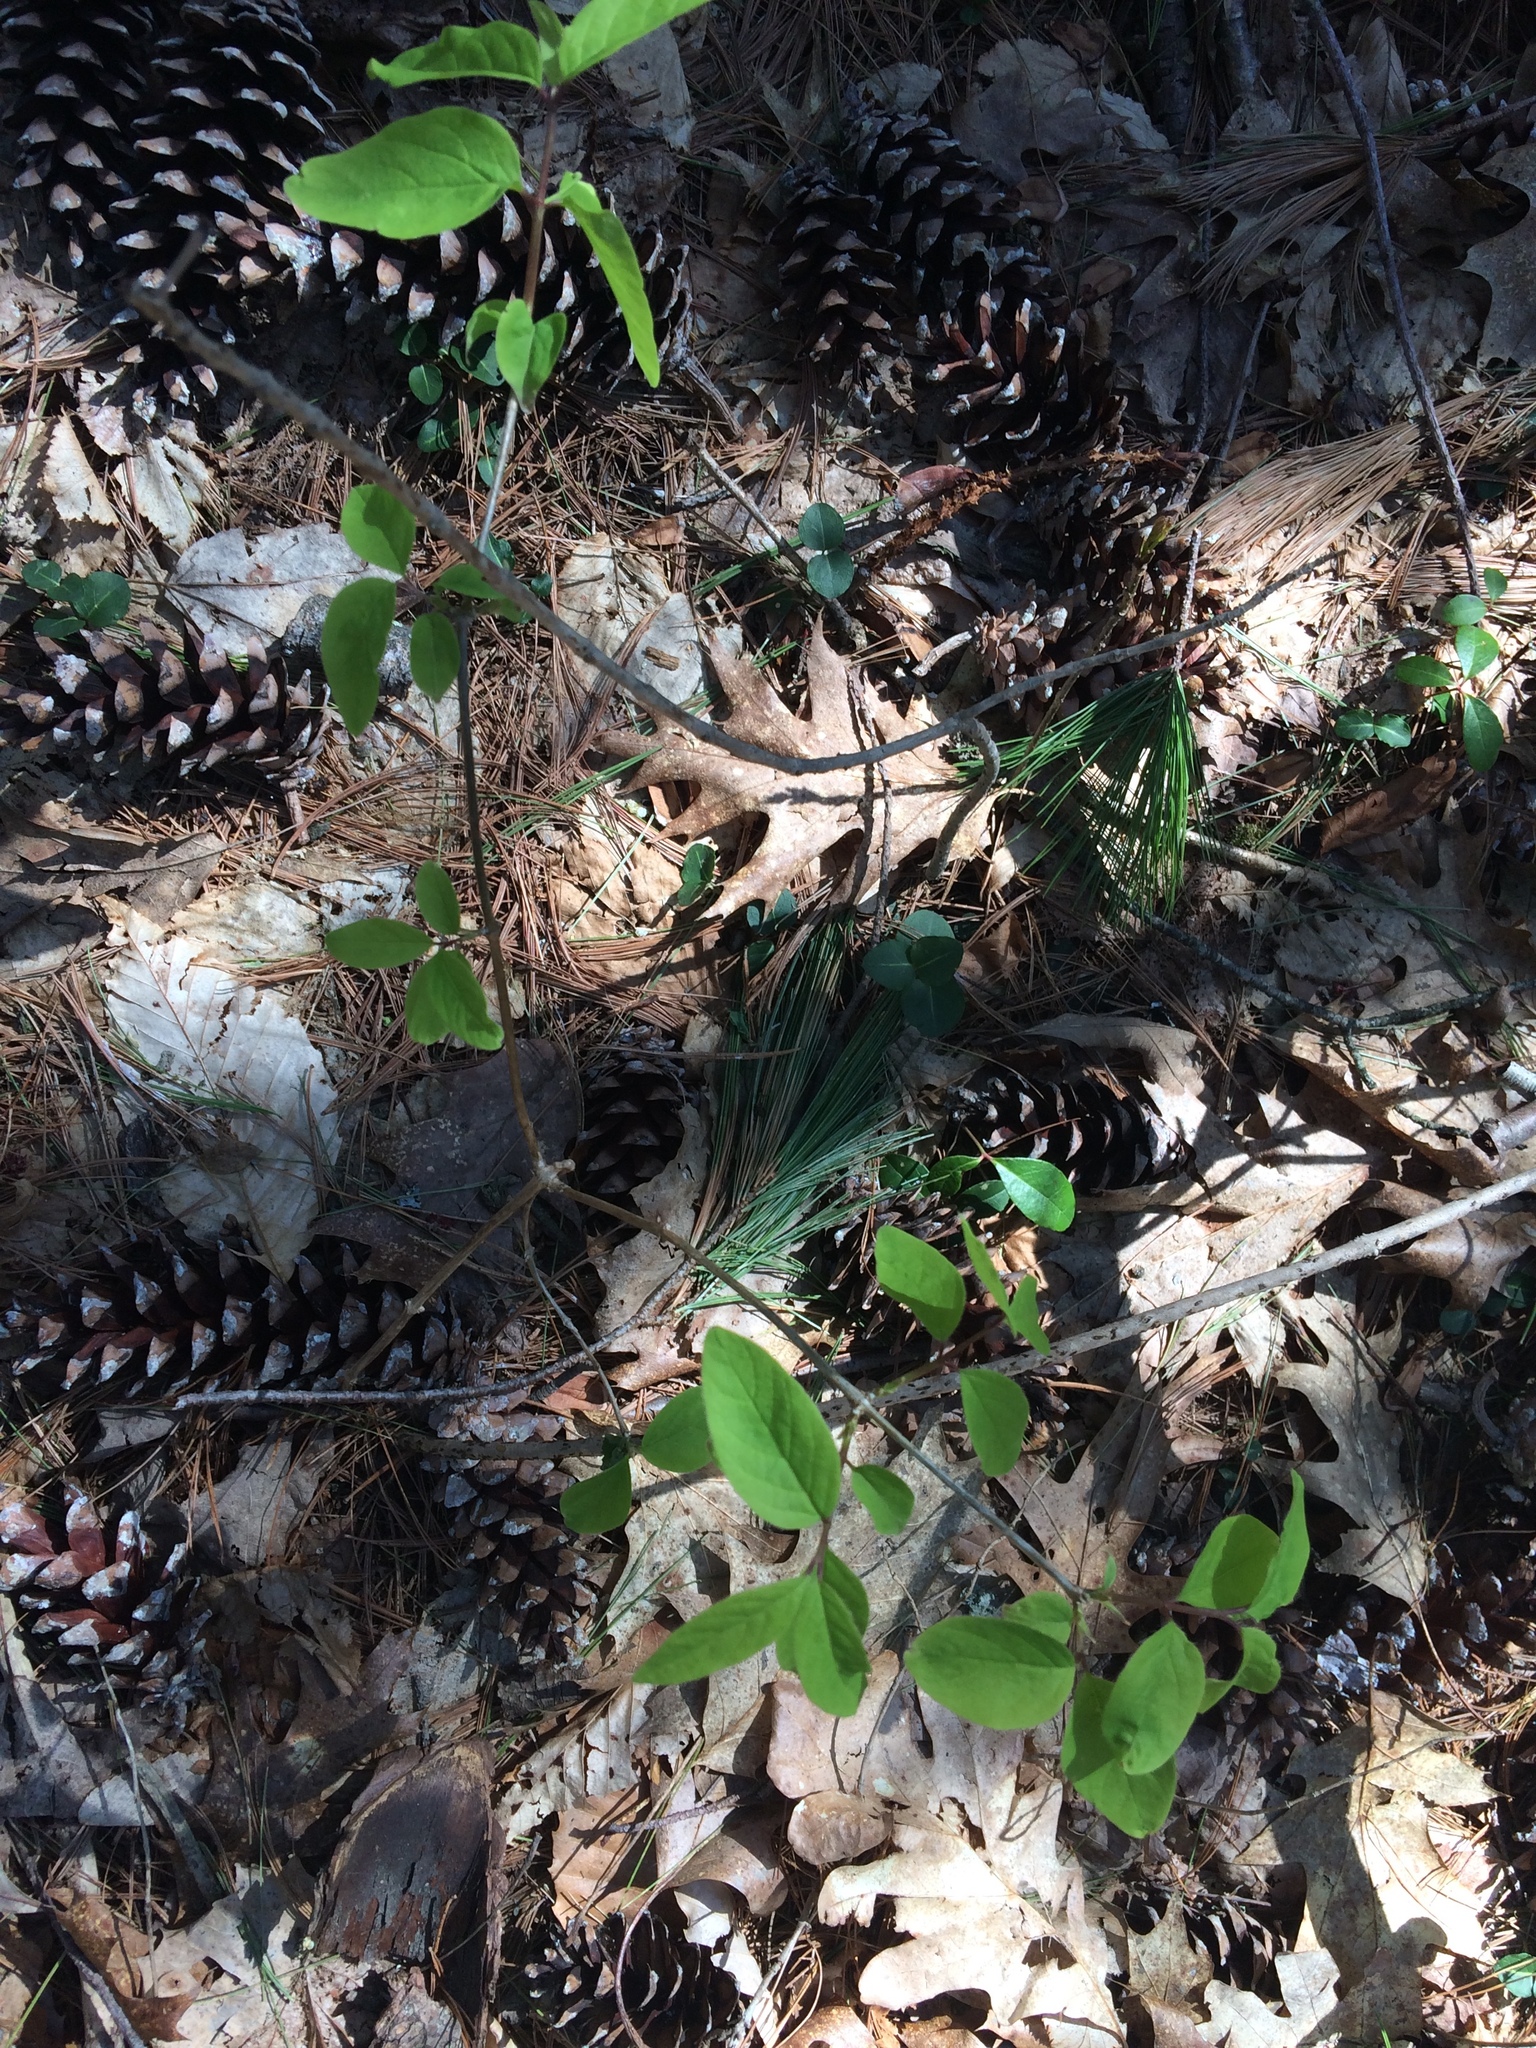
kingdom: Plantae
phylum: Tracheophyta
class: Pinopsida
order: Pinales
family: Pinaceae
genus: Pinus
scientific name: Pinus strobus
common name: Weymouth pine
